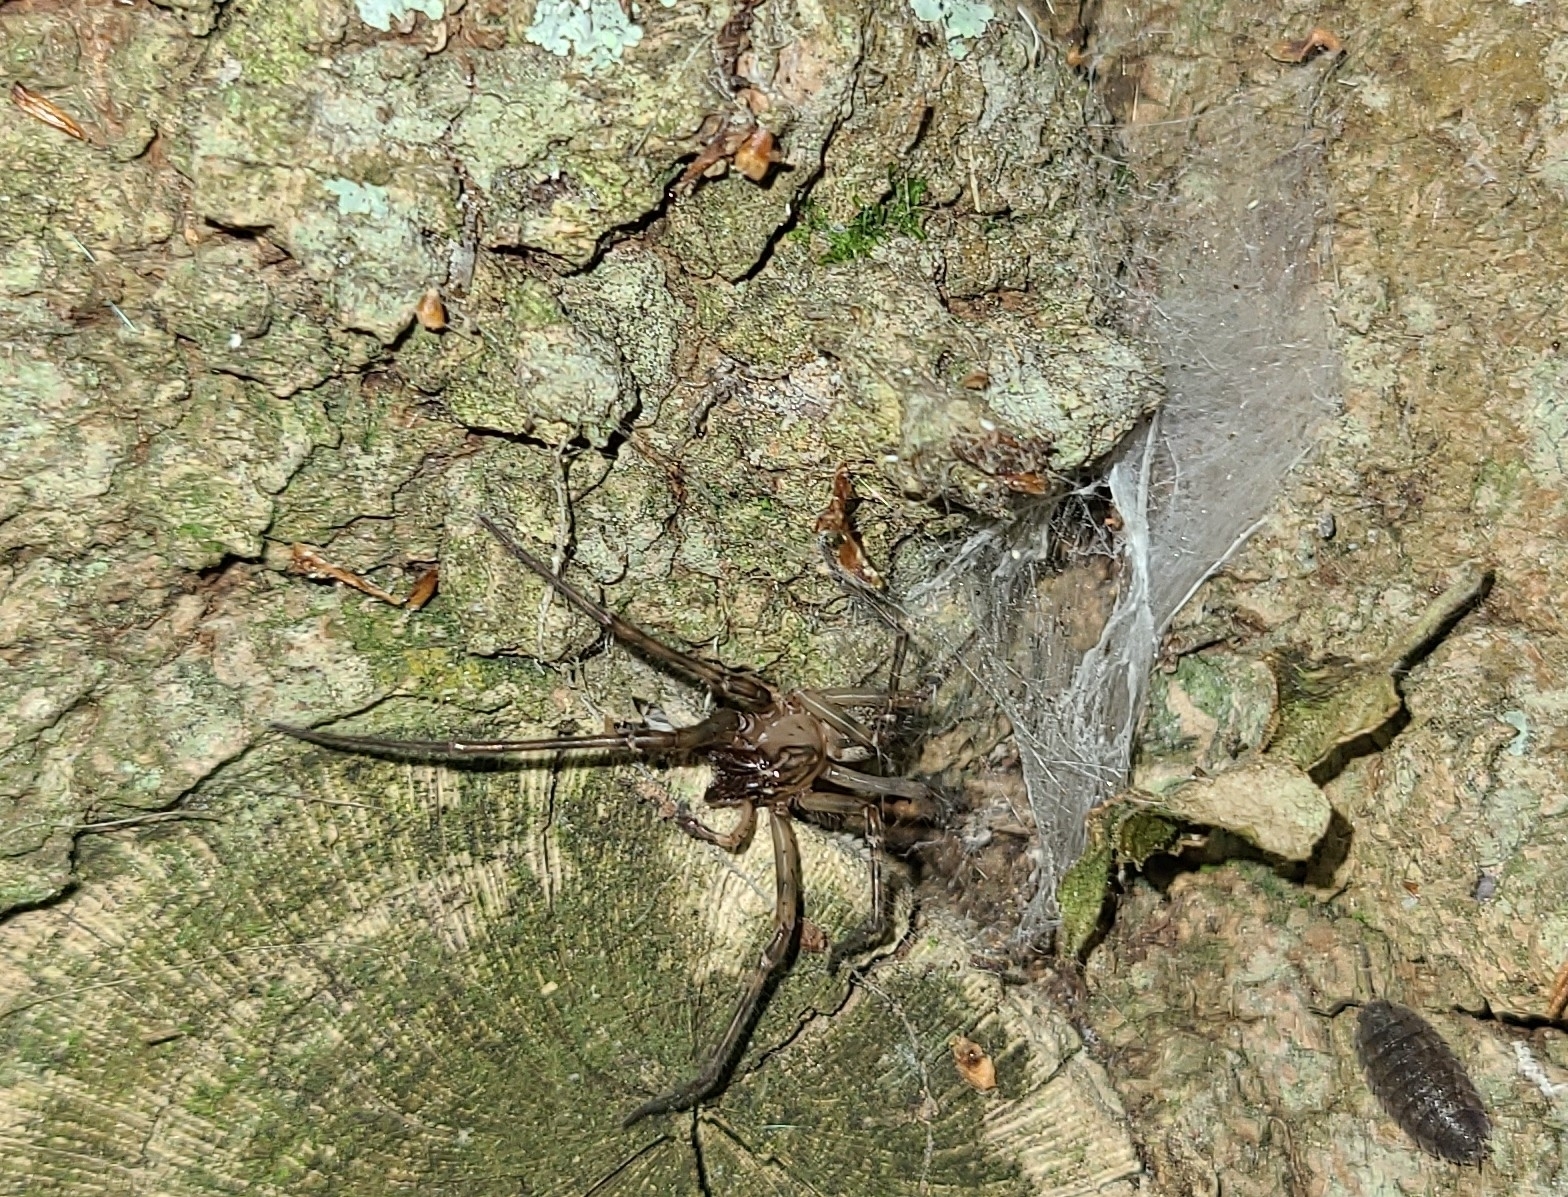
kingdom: Animalia
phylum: Arthropoda
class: Arachnida
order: Araneae
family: Desidae
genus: Nuisiana
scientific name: Nuisiana arboris
